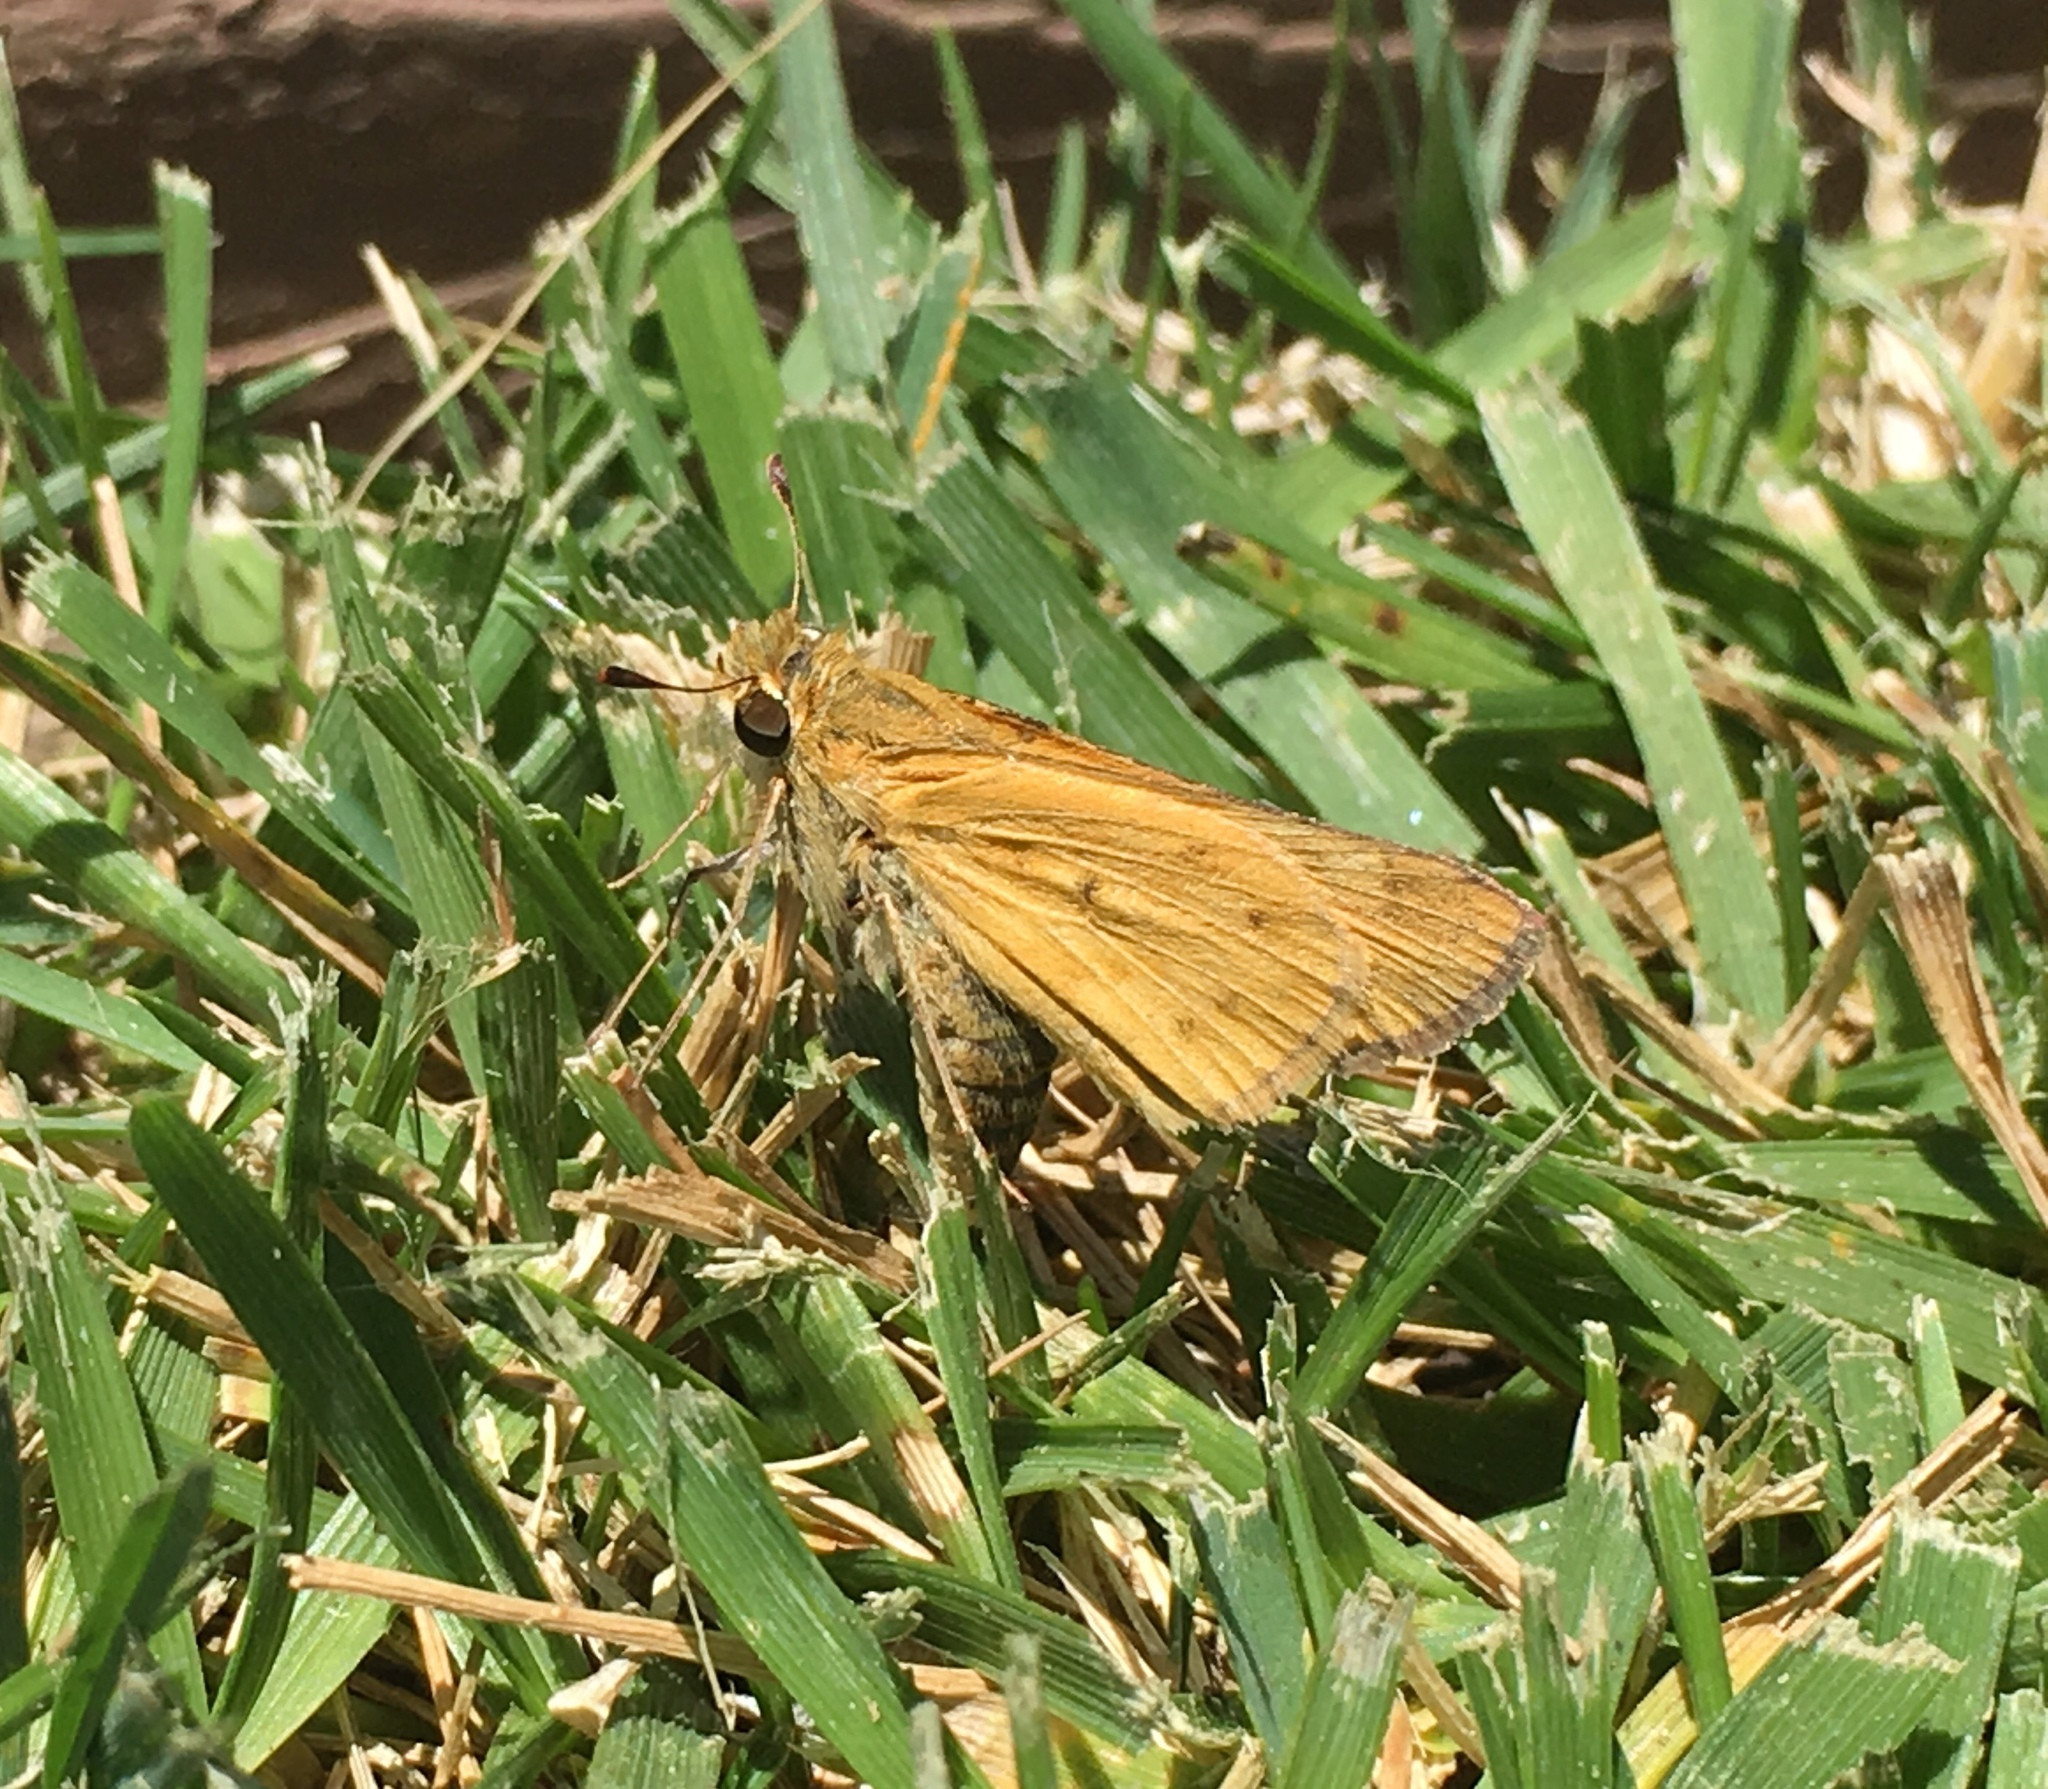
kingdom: Animalia
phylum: Arthropoda
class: Insecta
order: Lepidoptera
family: Hesperiidae
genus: Hylephila
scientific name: Hylephila phyleus
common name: Fiery skipper
